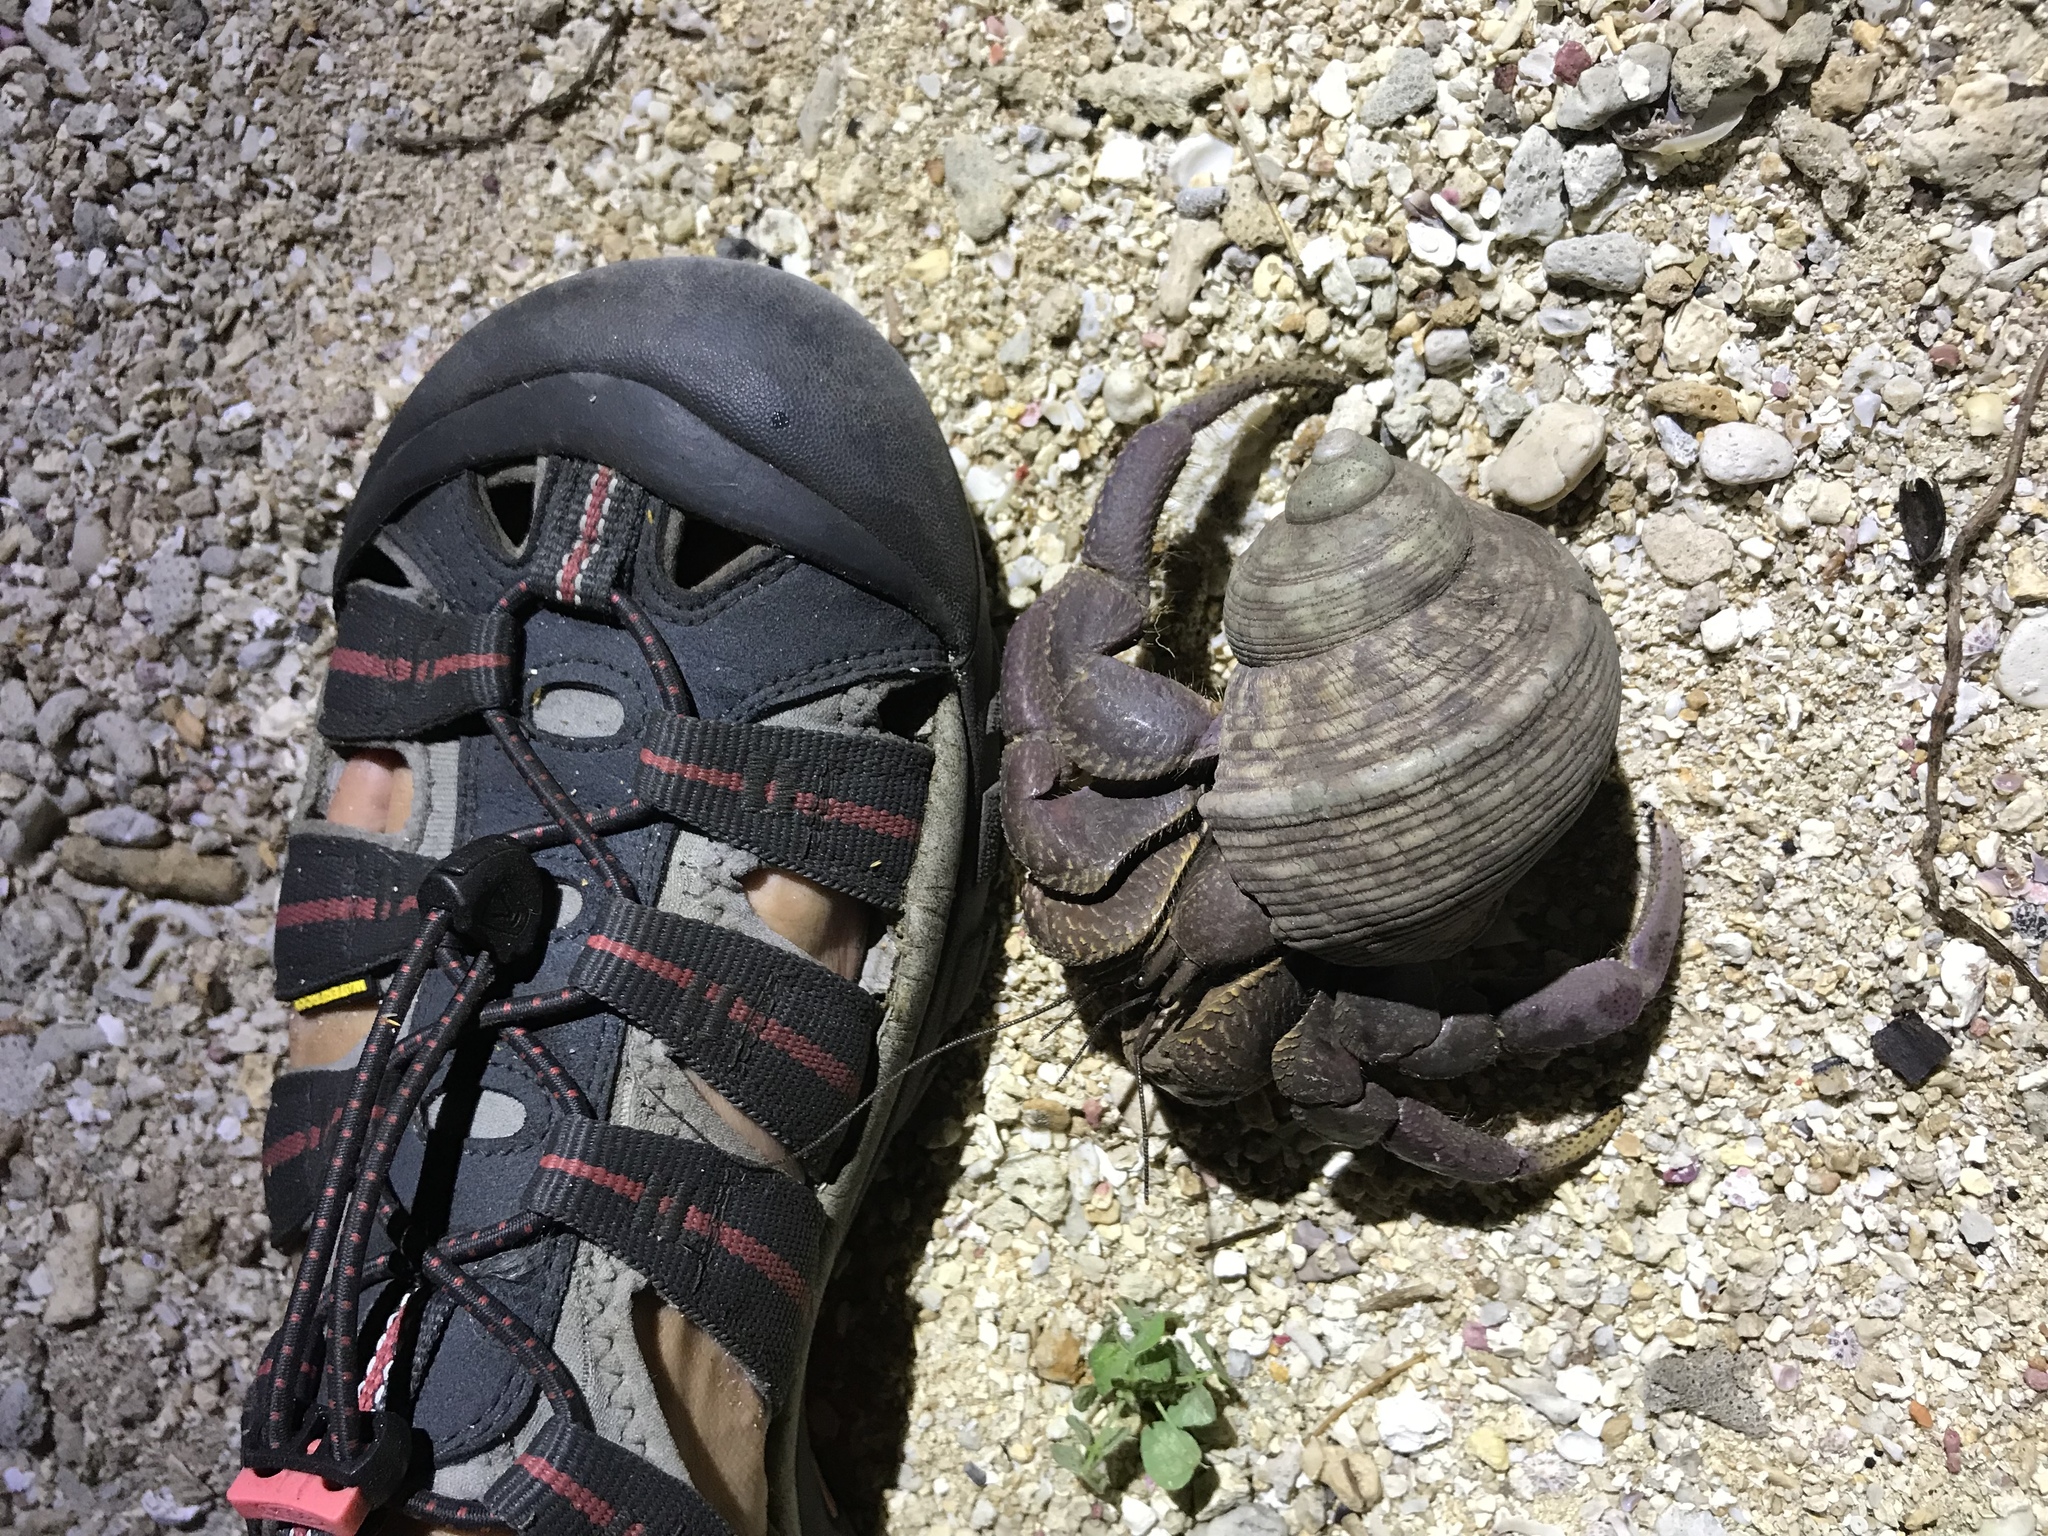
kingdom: Animalia
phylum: Arthropoda
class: Malacostraca
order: Decapoda
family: Coenobitidae
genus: Coenobita
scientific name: Coenobita brevimanus
